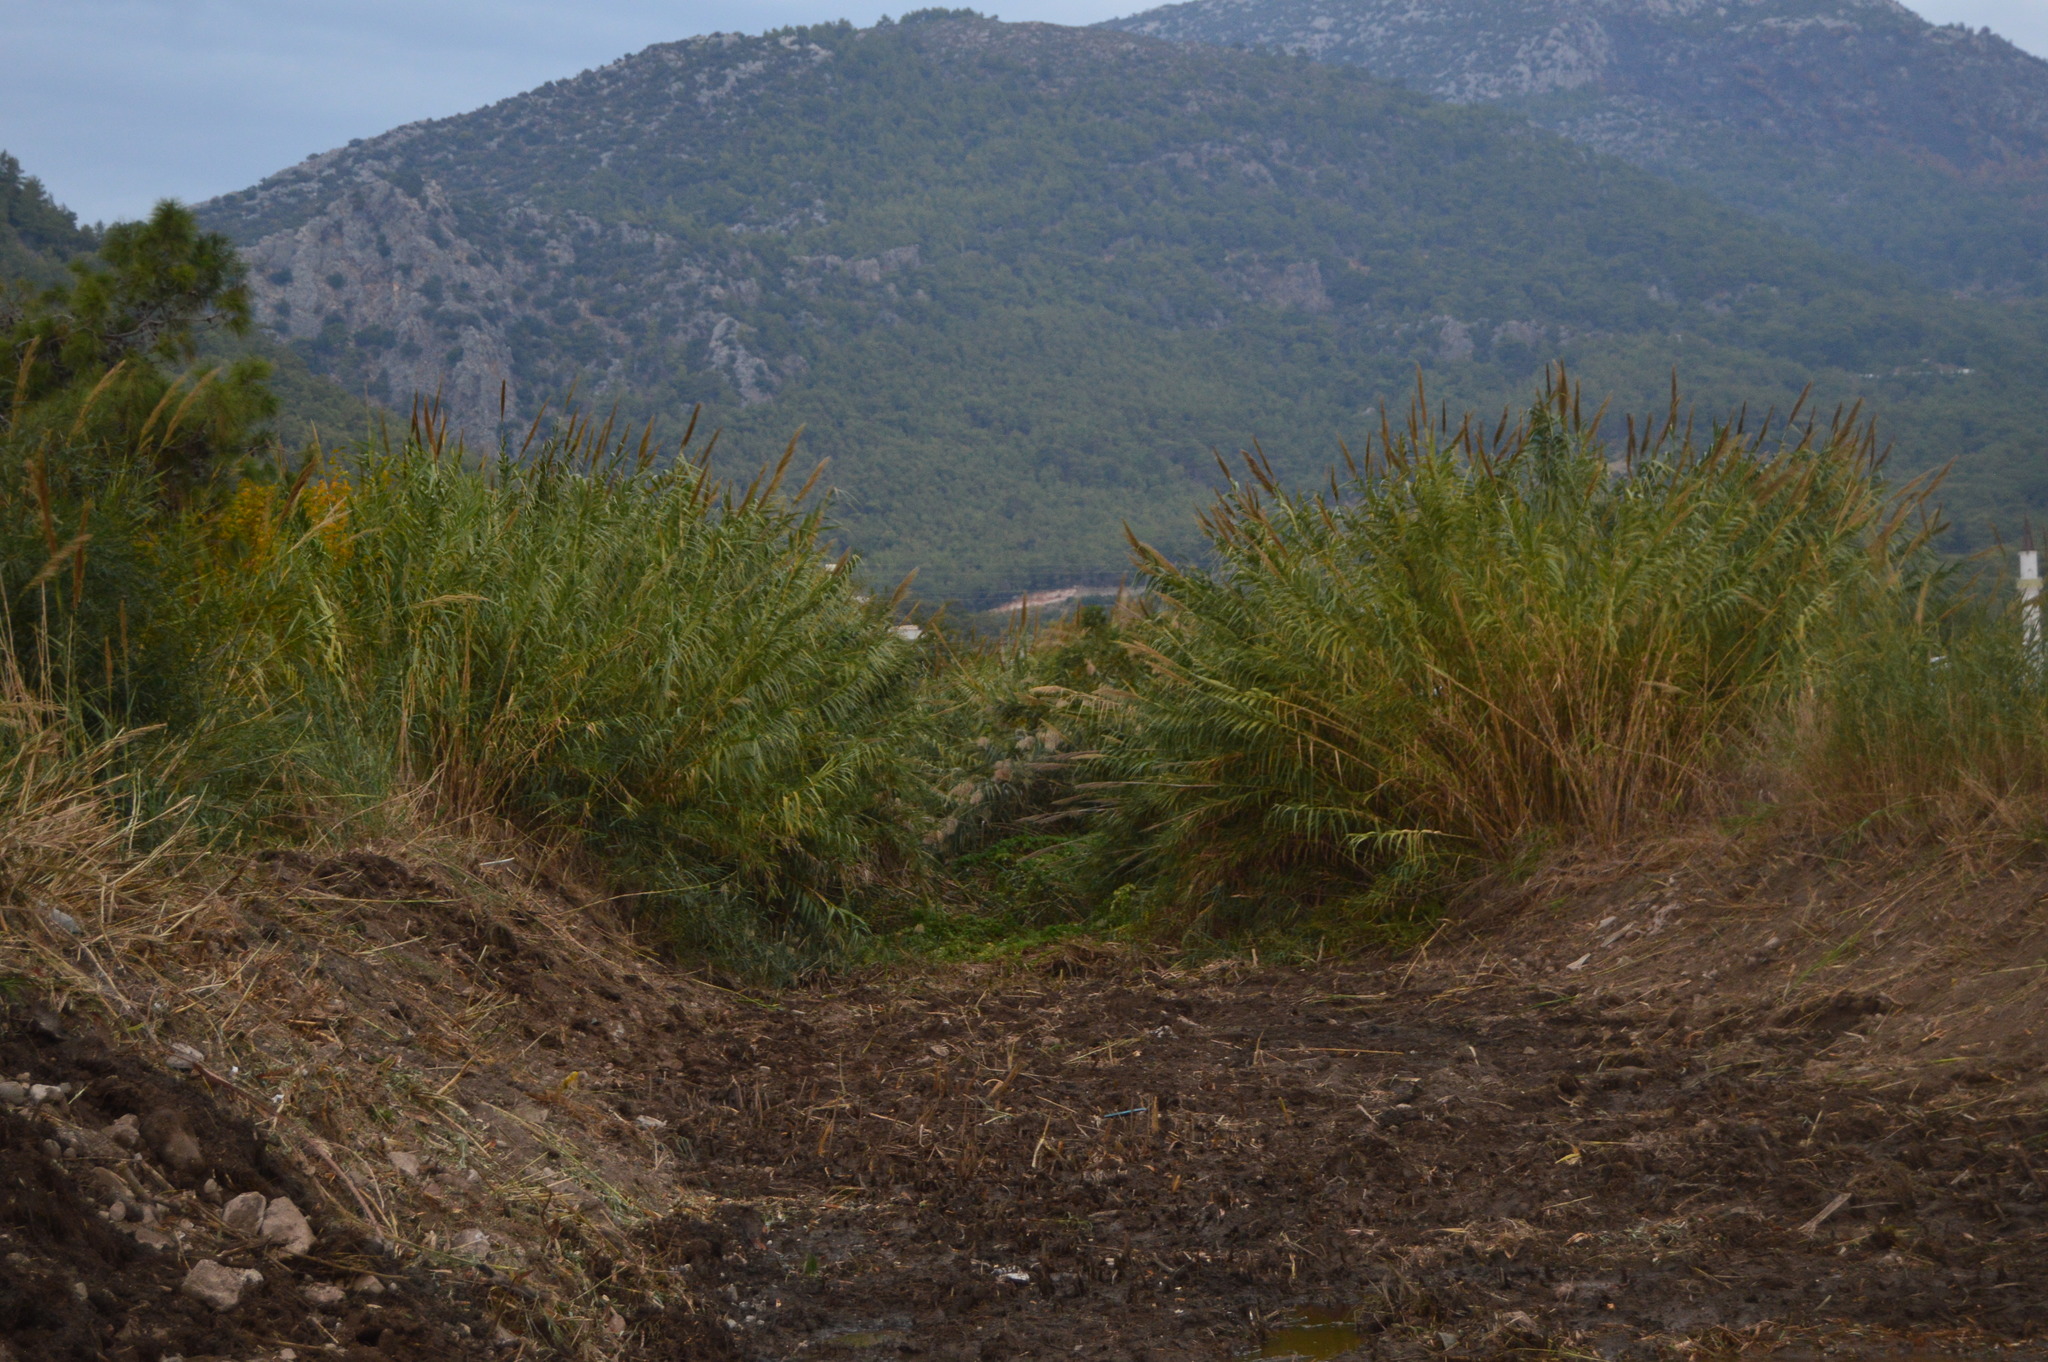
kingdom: Plantae
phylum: Tracheophyta
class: Liliopsida
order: Poales
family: Poaceae
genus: Arundo
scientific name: Arundo donax
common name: Giant reed
